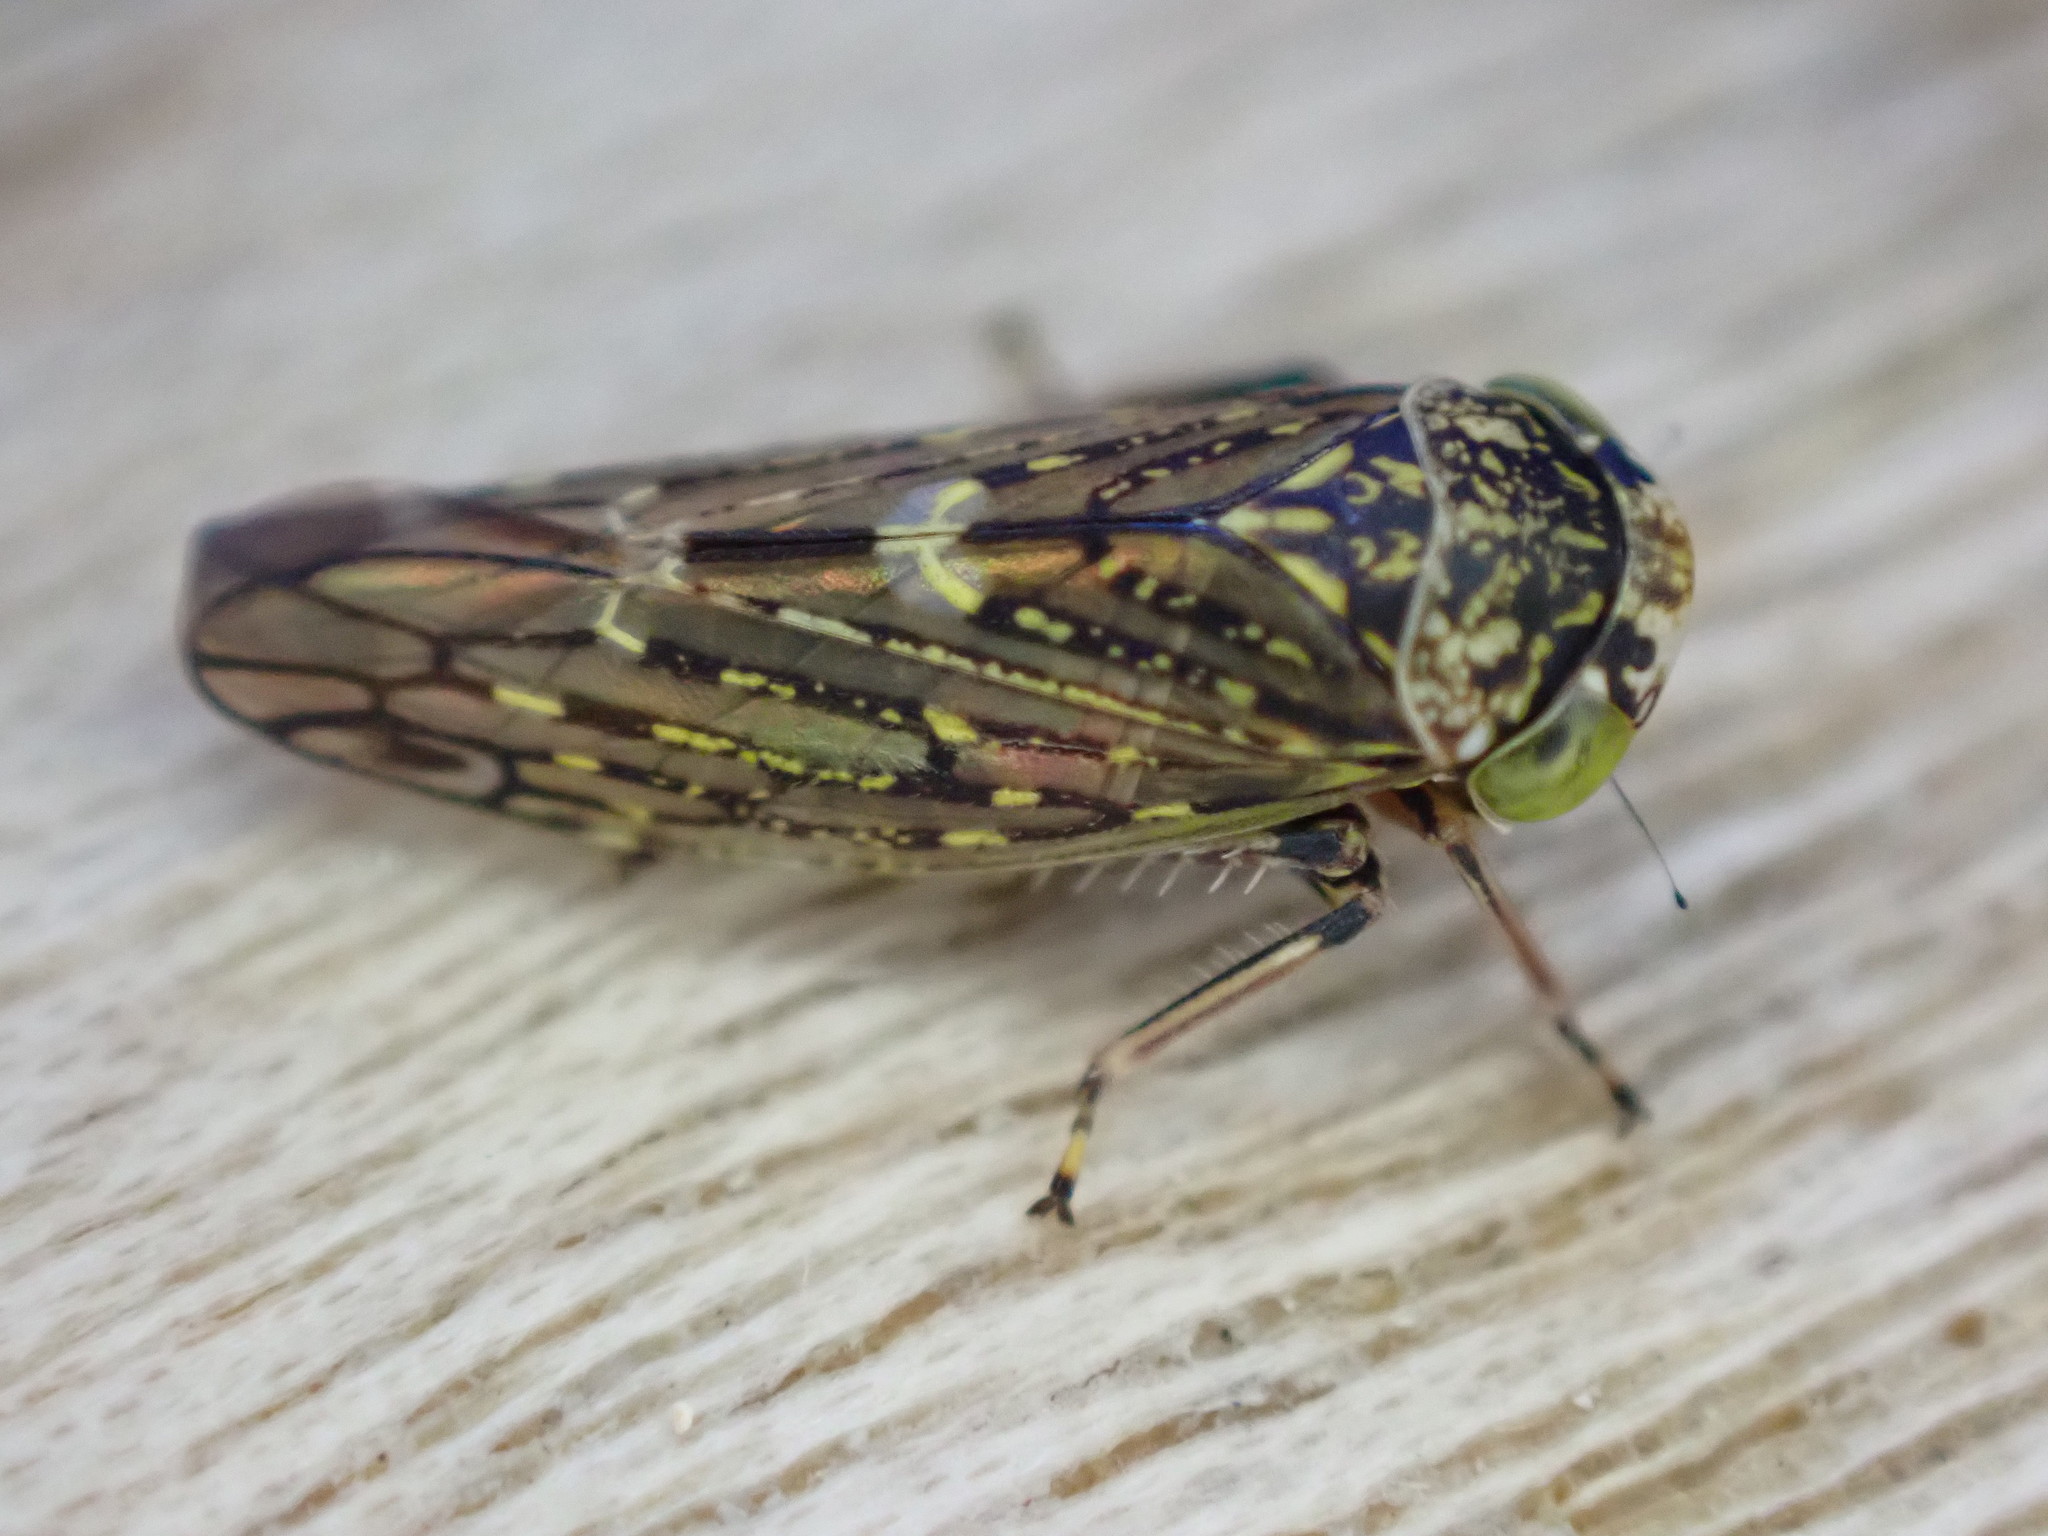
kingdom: Animalia
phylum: Arthropoda
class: Insecta
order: Hemiptera
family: Cicadellidae
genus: Acericerus
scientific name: Acericerus heydenii
